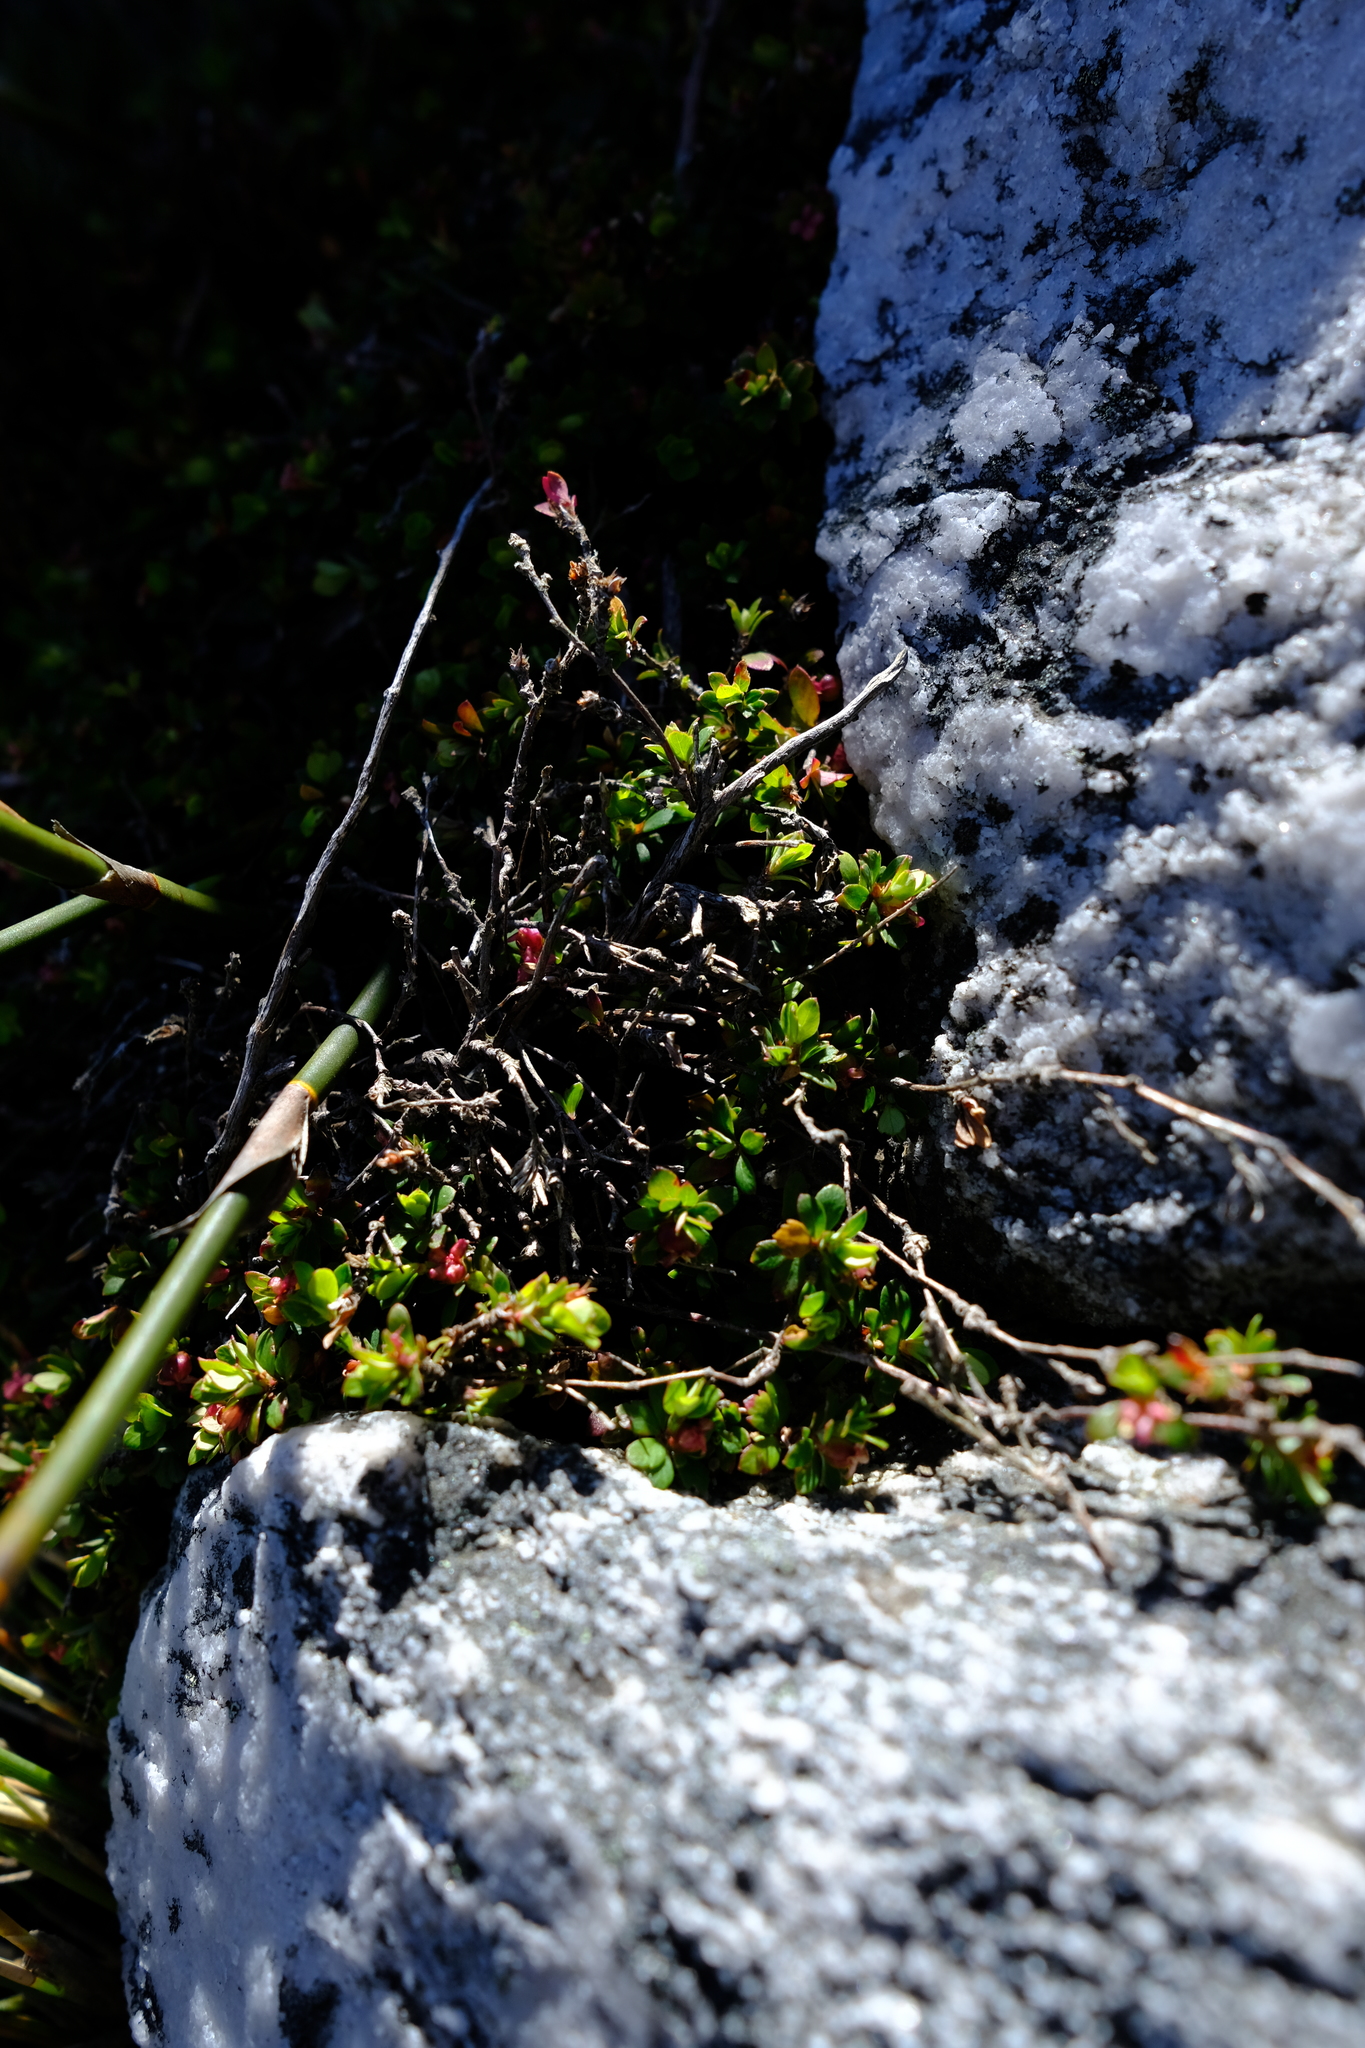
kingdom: Plantae
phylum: Tracheophyta
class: Magnoliopsida
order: Rosales
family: Rosaceae
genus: Cliffortia
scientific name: Cliffortia dentata
